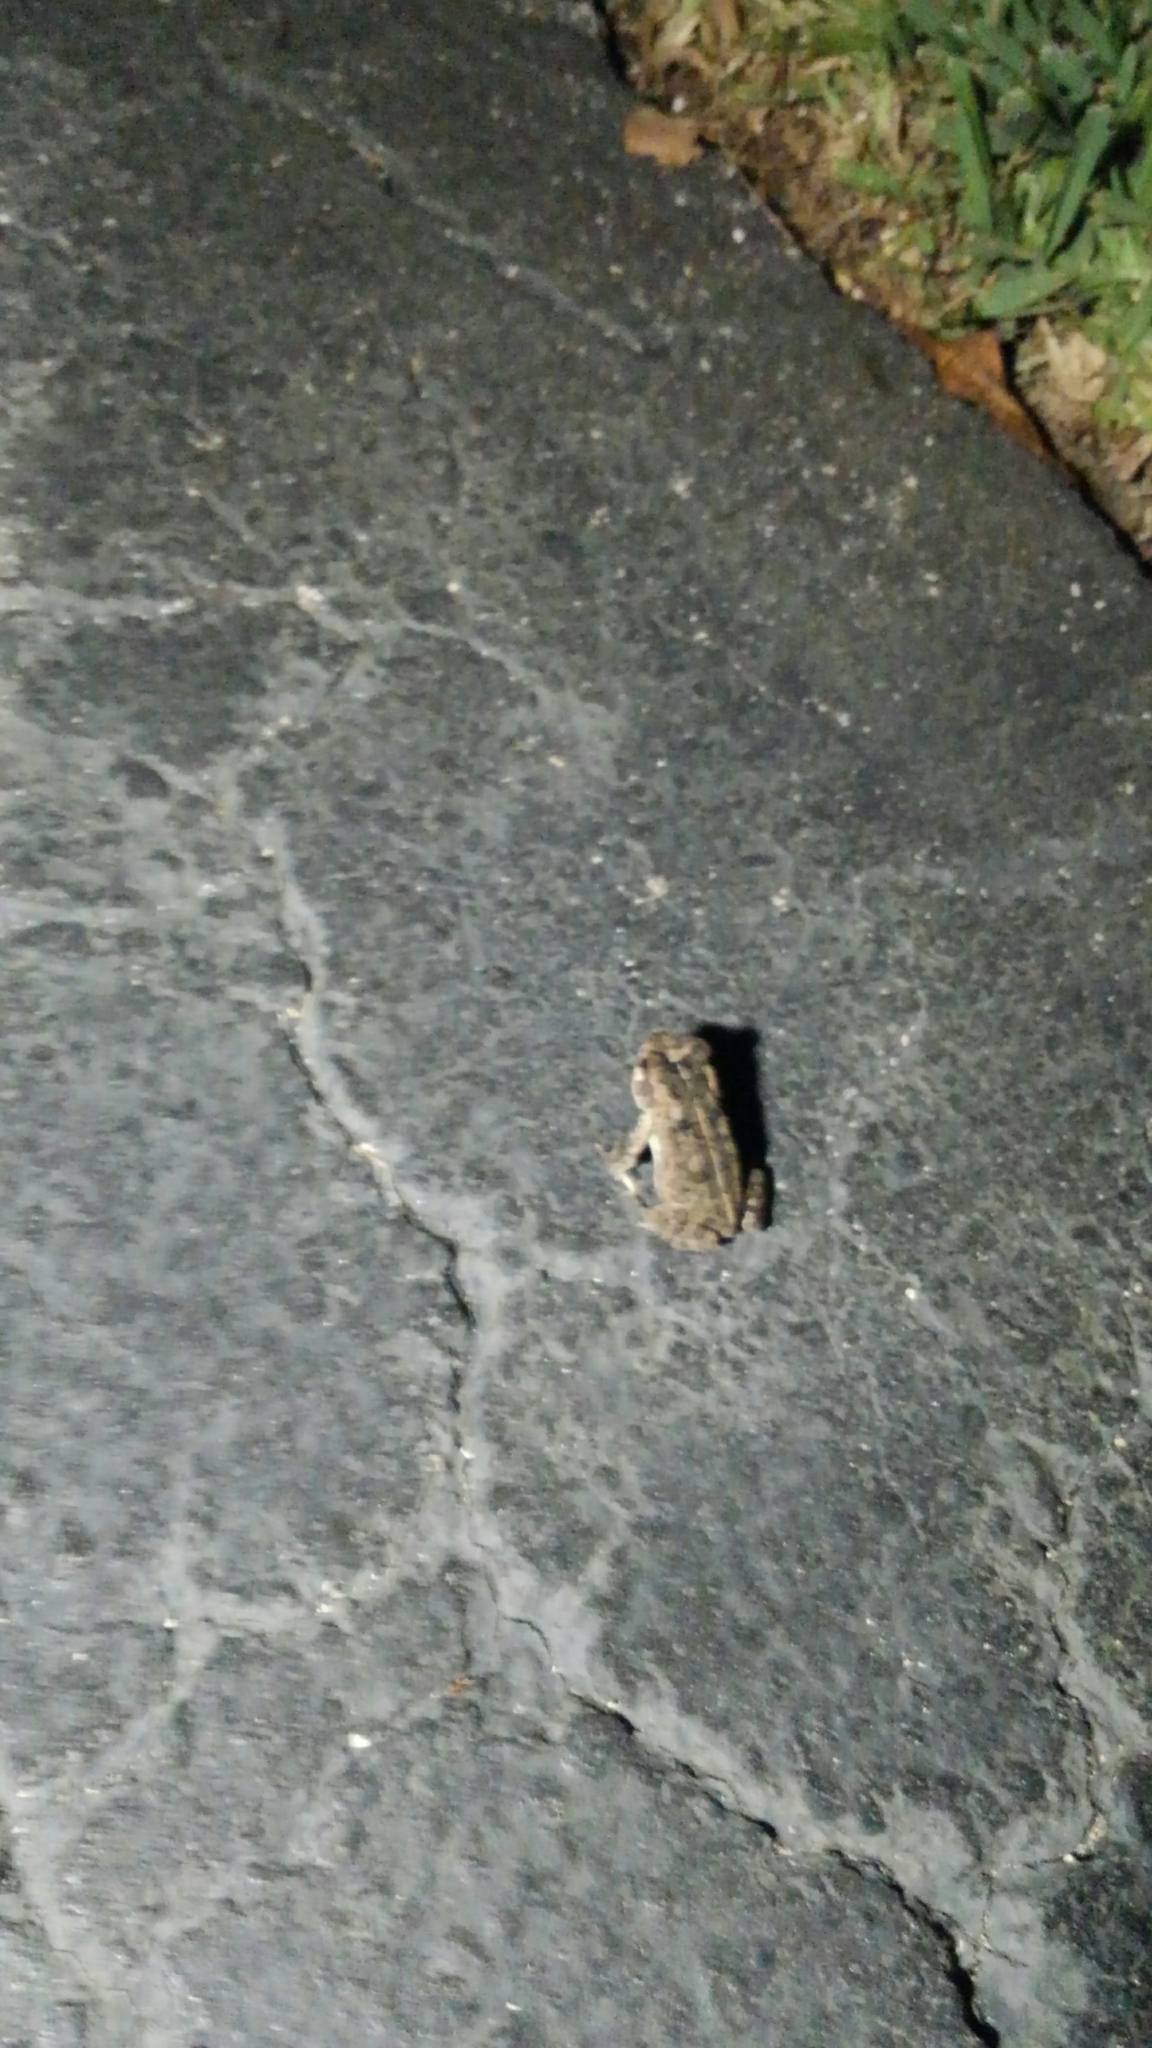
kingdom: Animalia
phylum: Chordata
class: Amphibia
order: Anura
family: Bufonidae
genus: Anaxyrus
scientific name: Anaxyrus terrestris
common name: Southern toad
